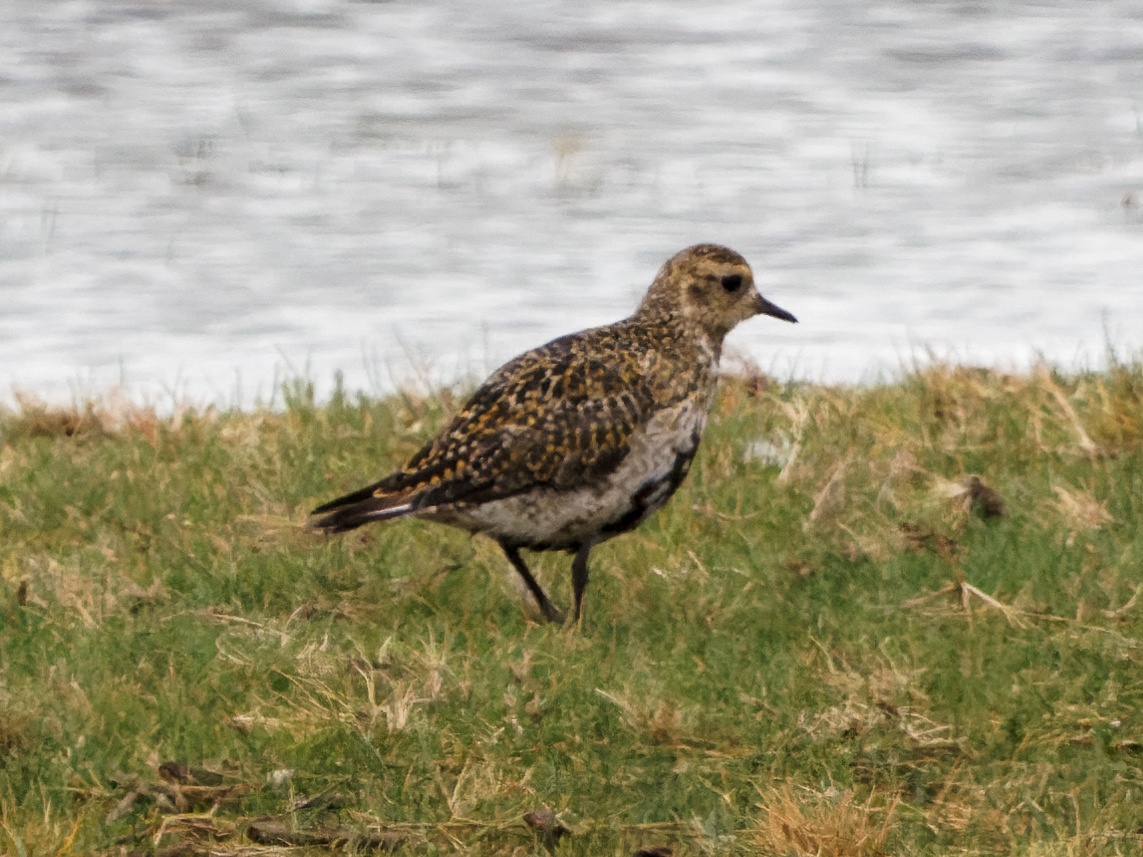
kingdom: Animalia
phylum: Chordata
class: Aves
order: Charadriiformes
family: Charadriidae
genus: Pluvialis
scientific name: Pluvialis apricaria
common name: European golden plover
